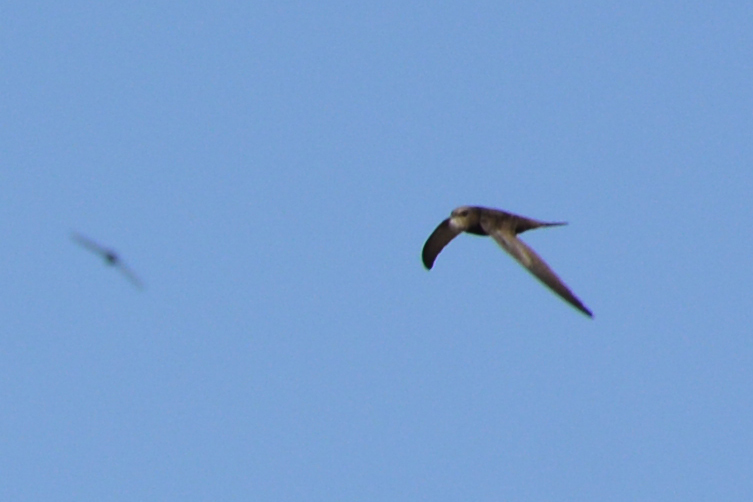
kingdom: Animalia
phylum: Chordata
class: Aves
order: Apodiformes
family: Apodidae
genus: Apus
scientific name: Apus pallidus
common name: Pallid swift
